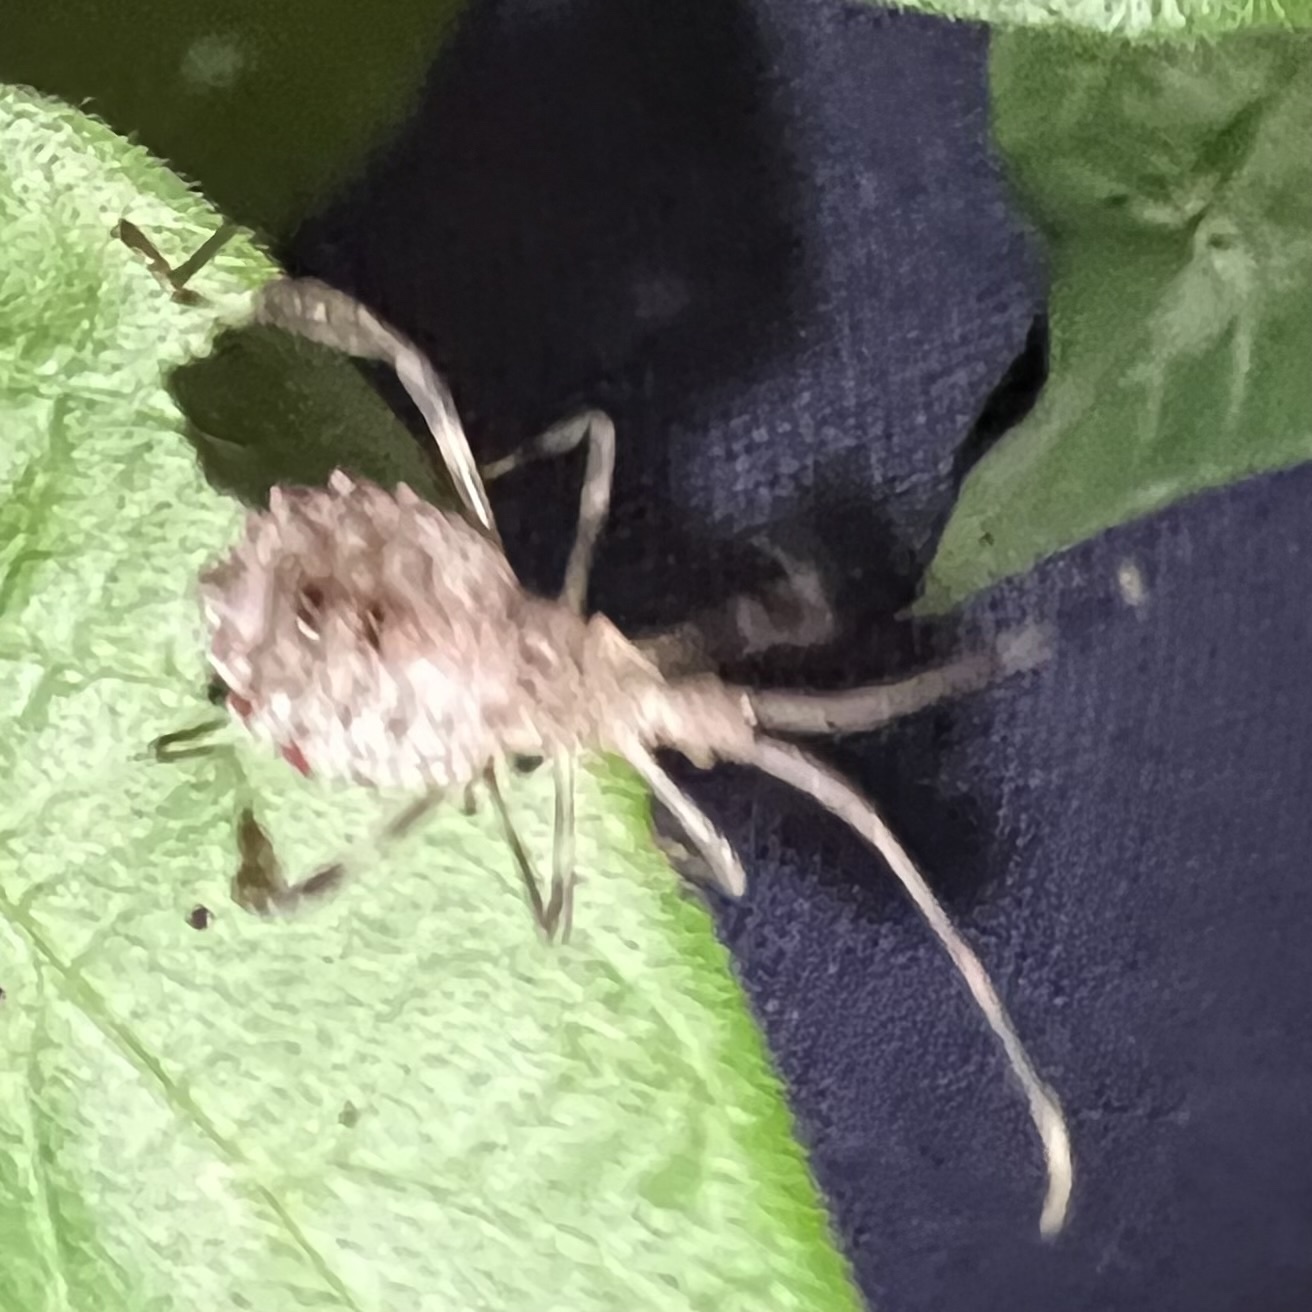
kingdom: Animalia
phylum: Arthropoda
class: Insecta
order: Hemiptera
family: Coreidae
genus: Acanthocephala
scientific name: Acanthocephala terminalis
